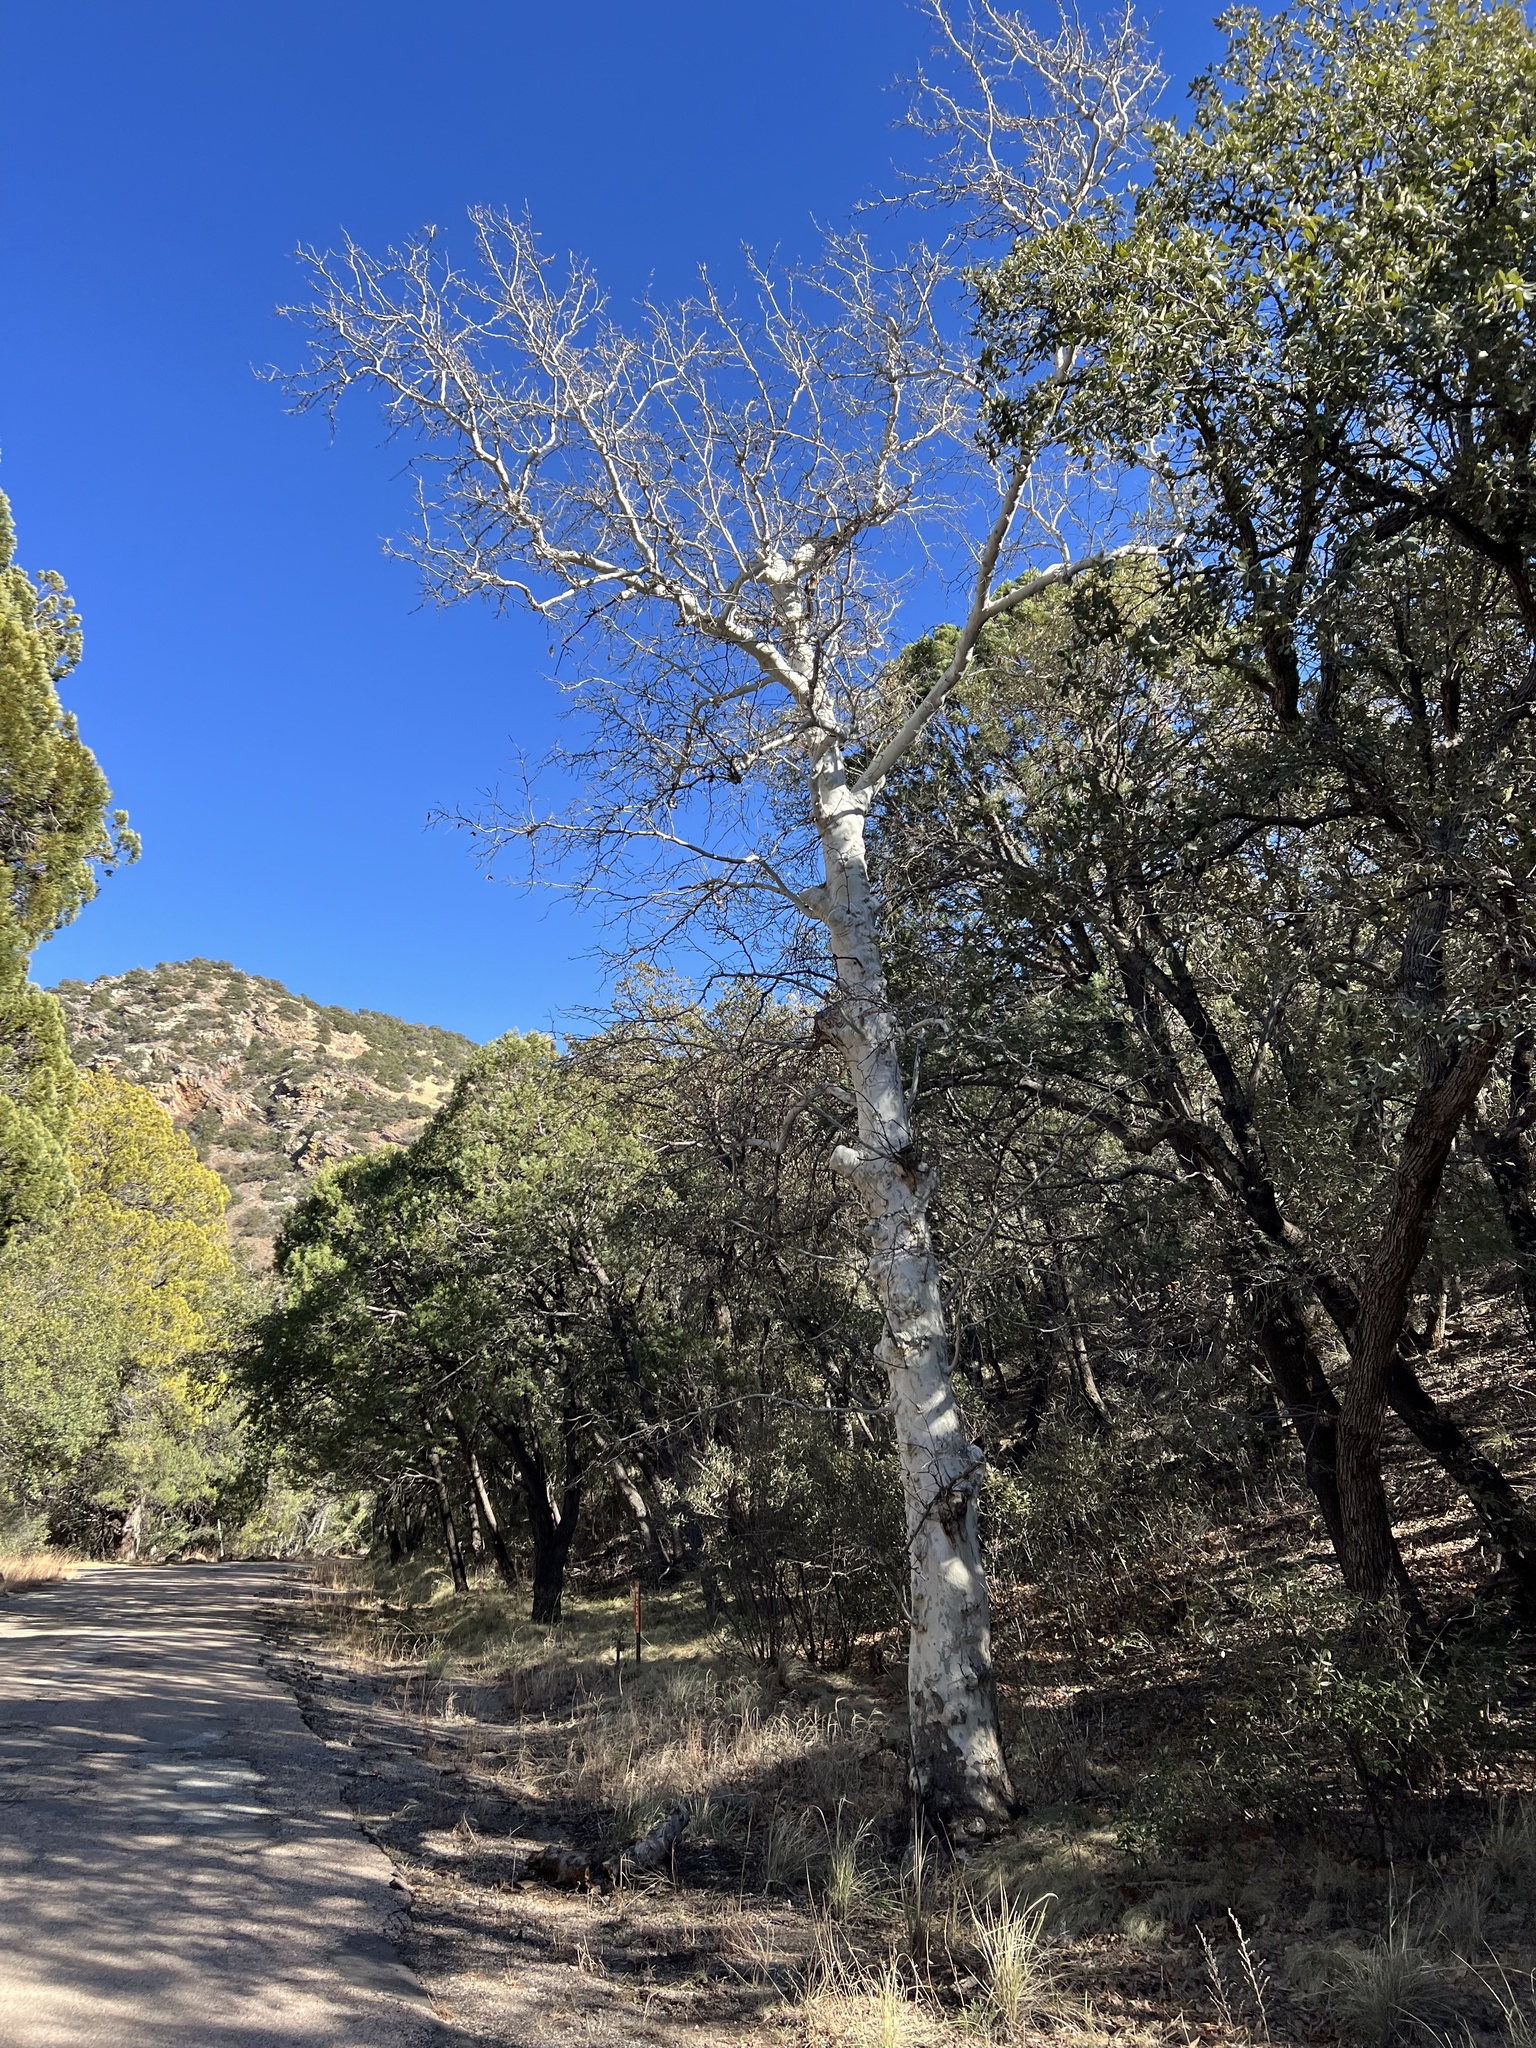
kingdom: Plantae
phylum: Tracheophyta
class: Magnoliopsida
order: Proteales
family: Platanaceae
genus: Platanus
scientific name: Platanus wrightii
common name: Arizona sycamore
